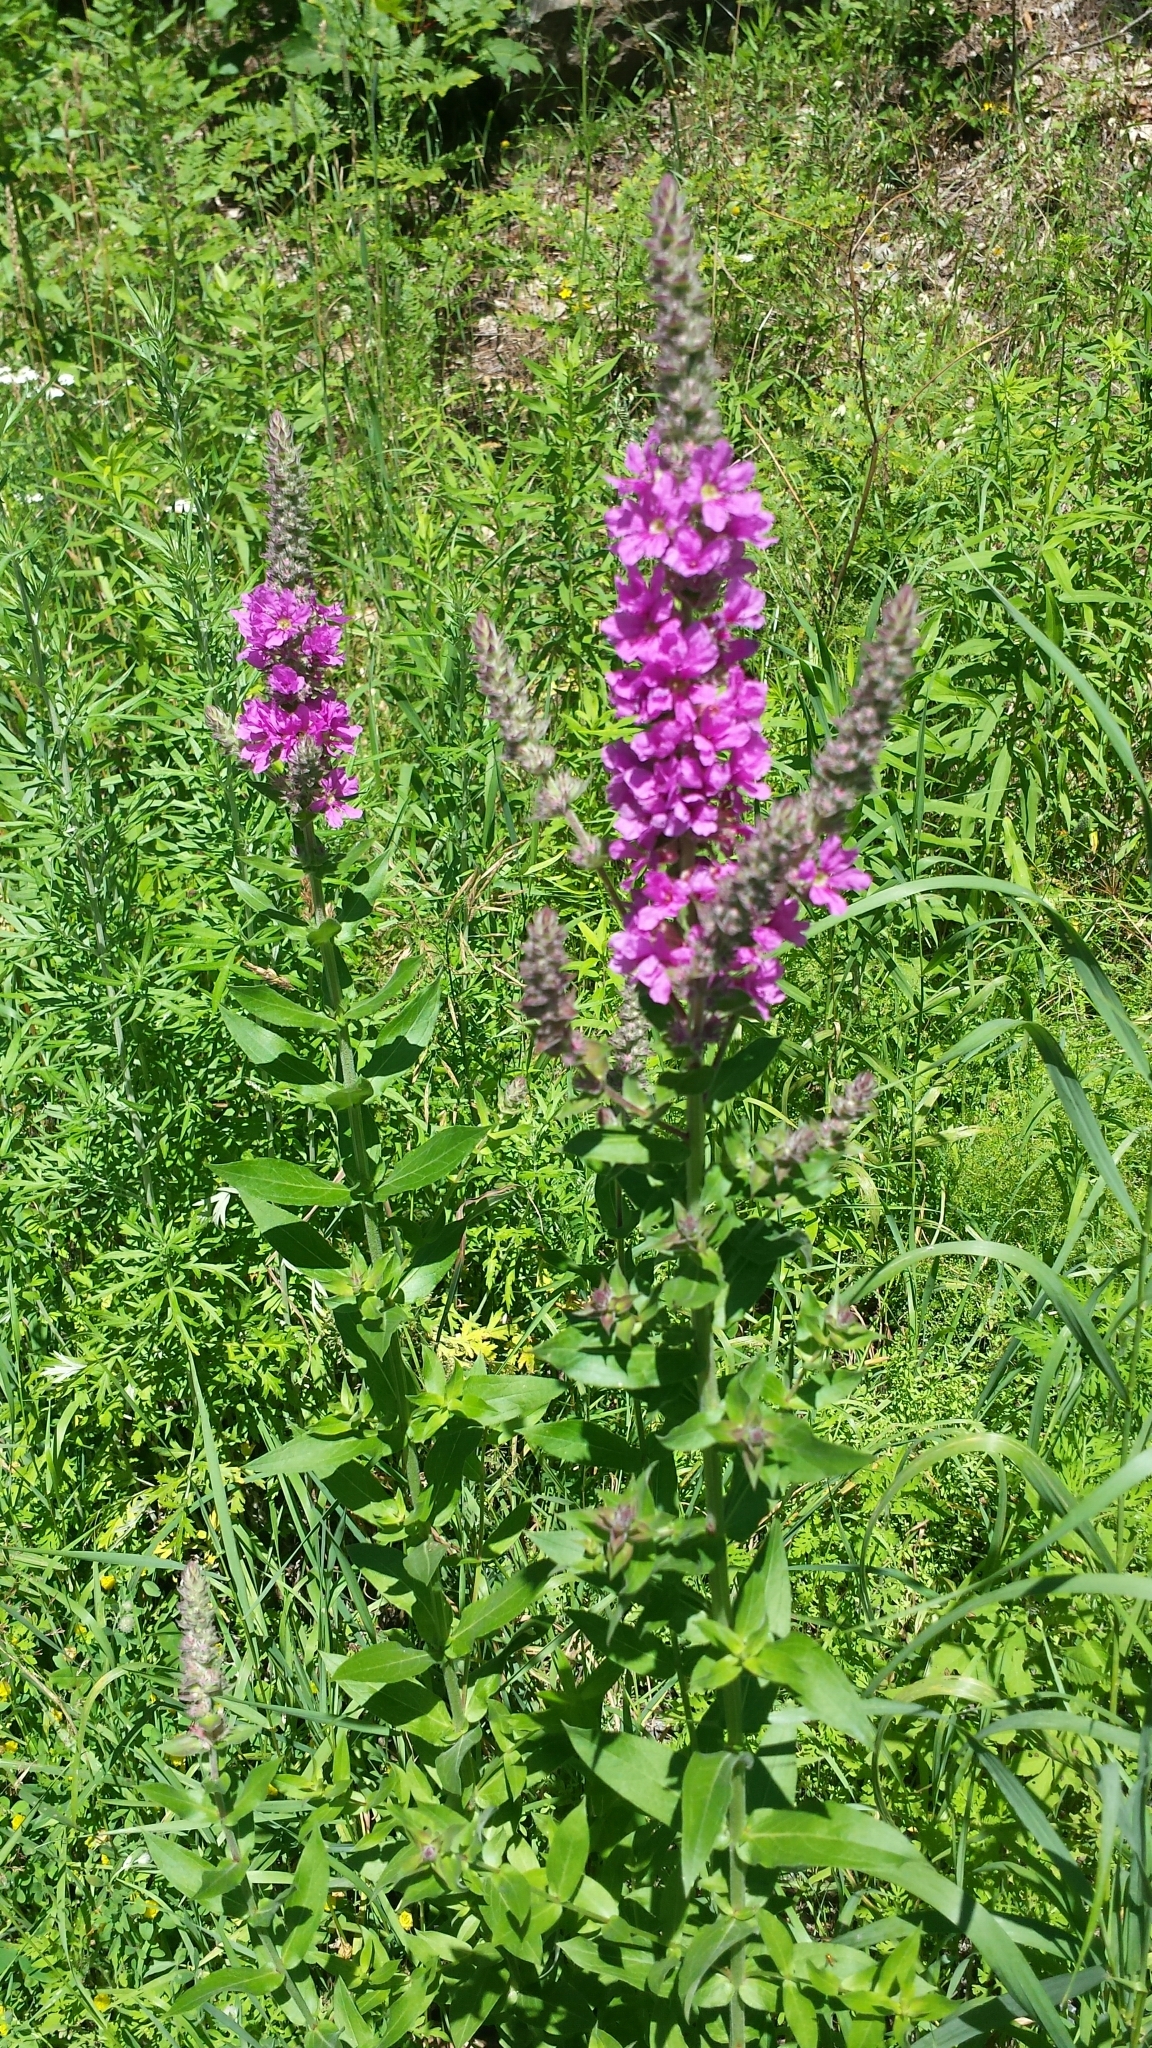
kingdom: Plantae
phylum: Tracheophyta
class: Magnoliopsida
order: Myrtales
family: Lythraceae
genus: Lythrum
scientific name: Lythrum salicaria
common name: Purple loosestrife
